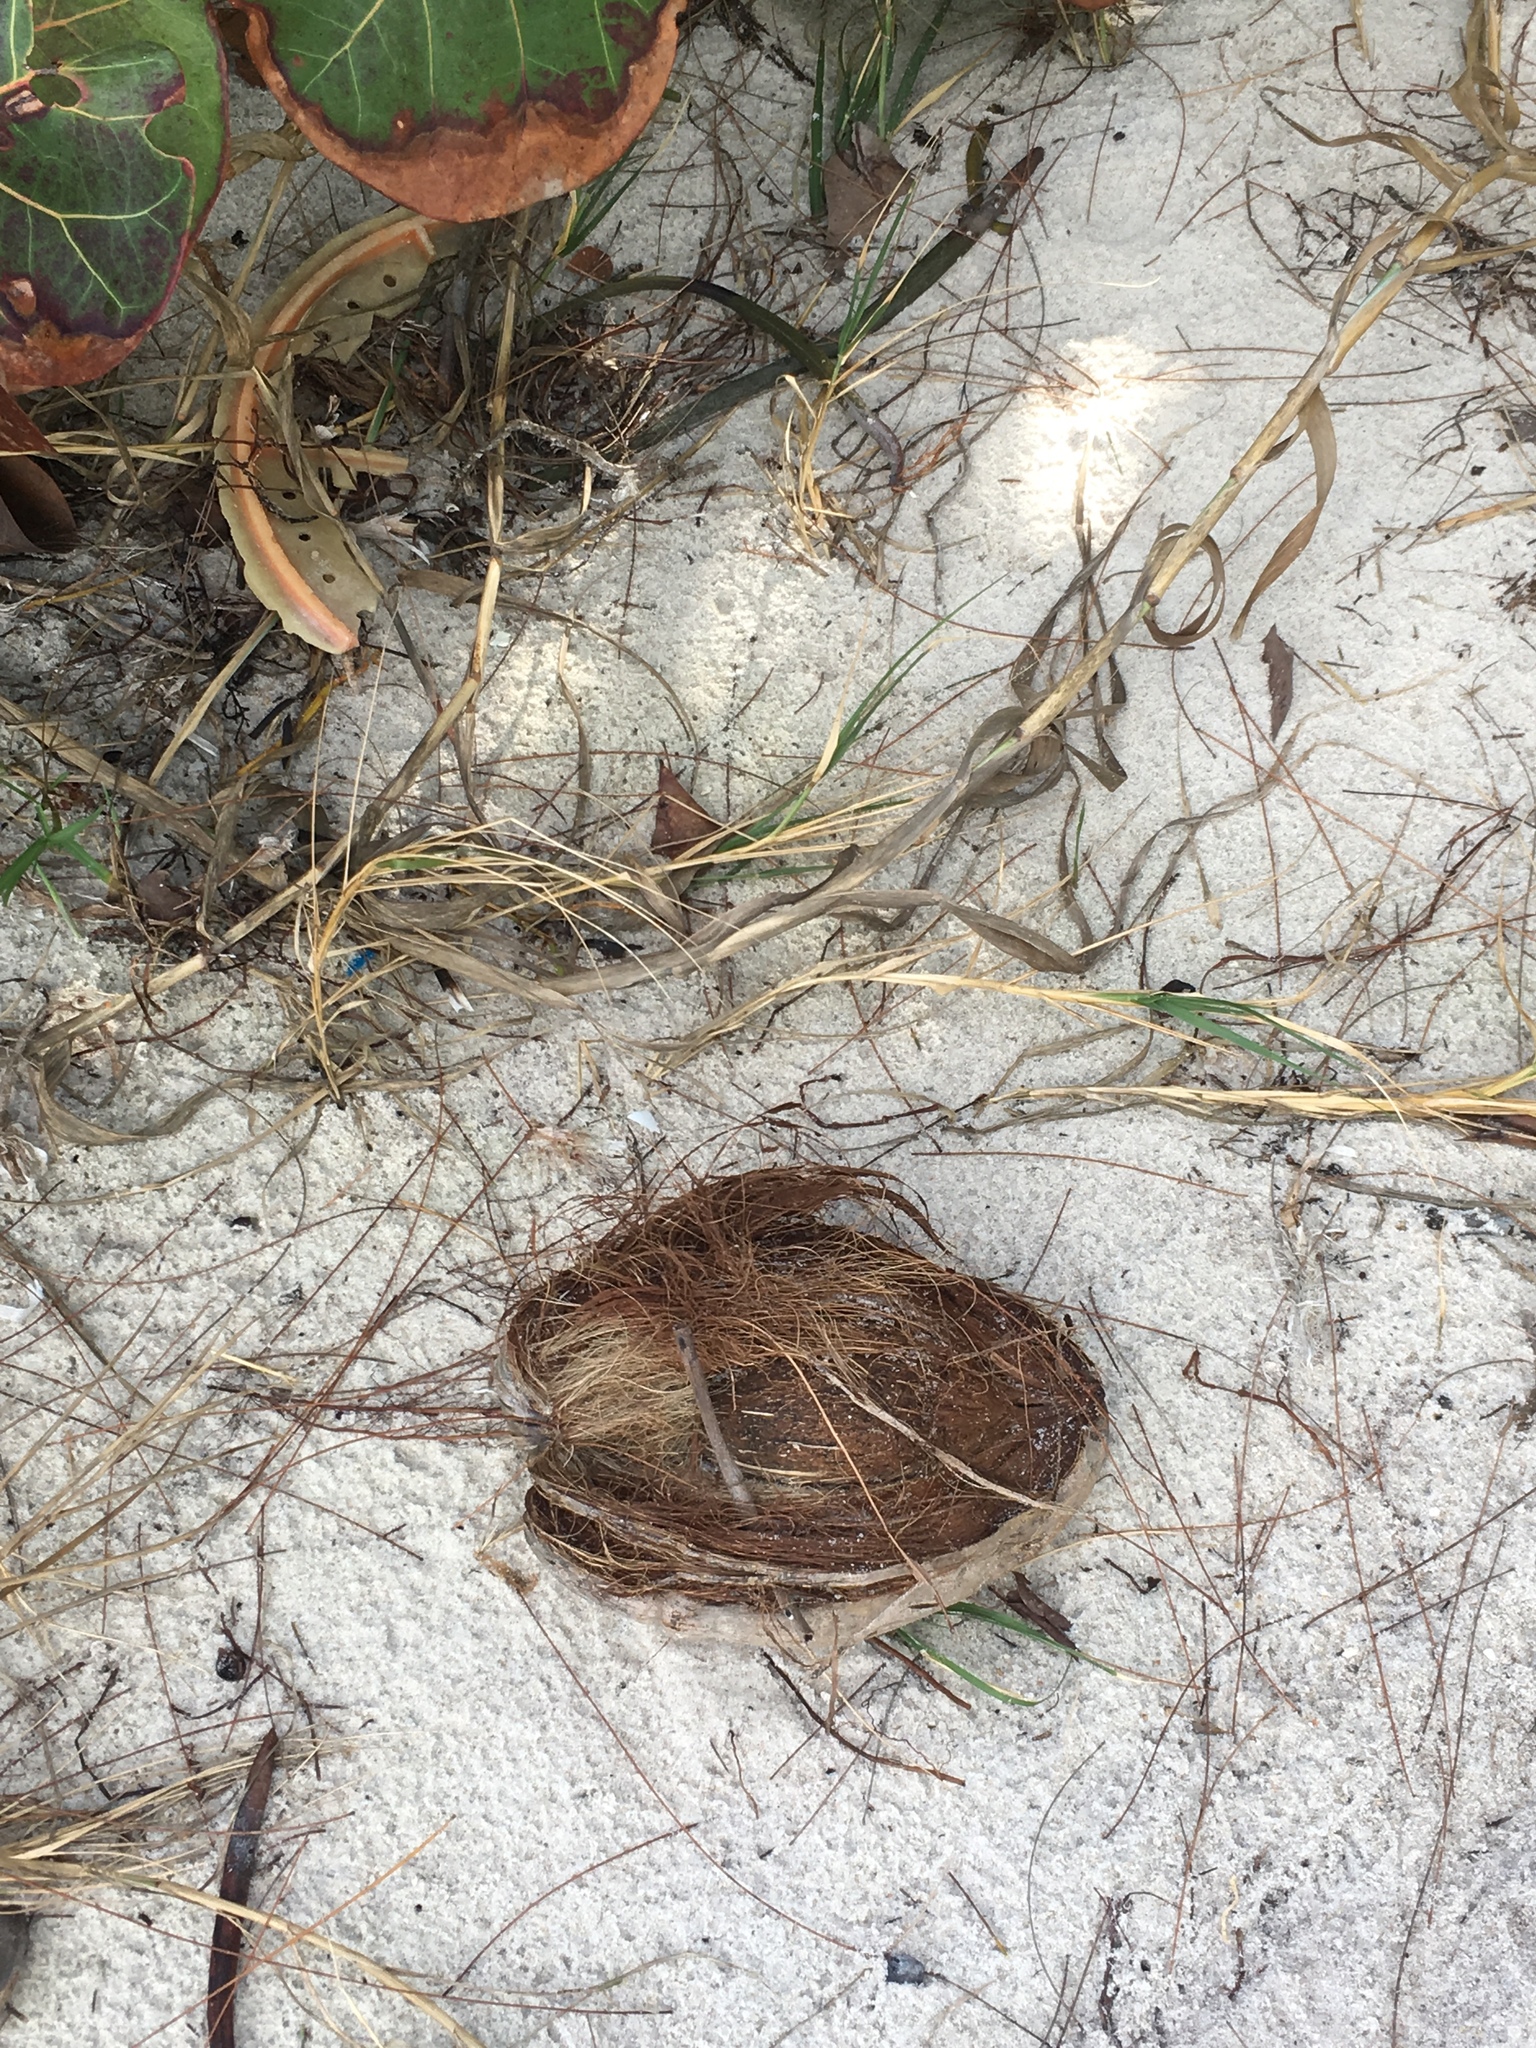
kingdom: Plantae
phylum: Tracheophyta
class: Liliopsida
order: Arecales
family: Arecaceae
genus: Cocos
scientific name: Cocos nucifera
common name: Coconut palm
